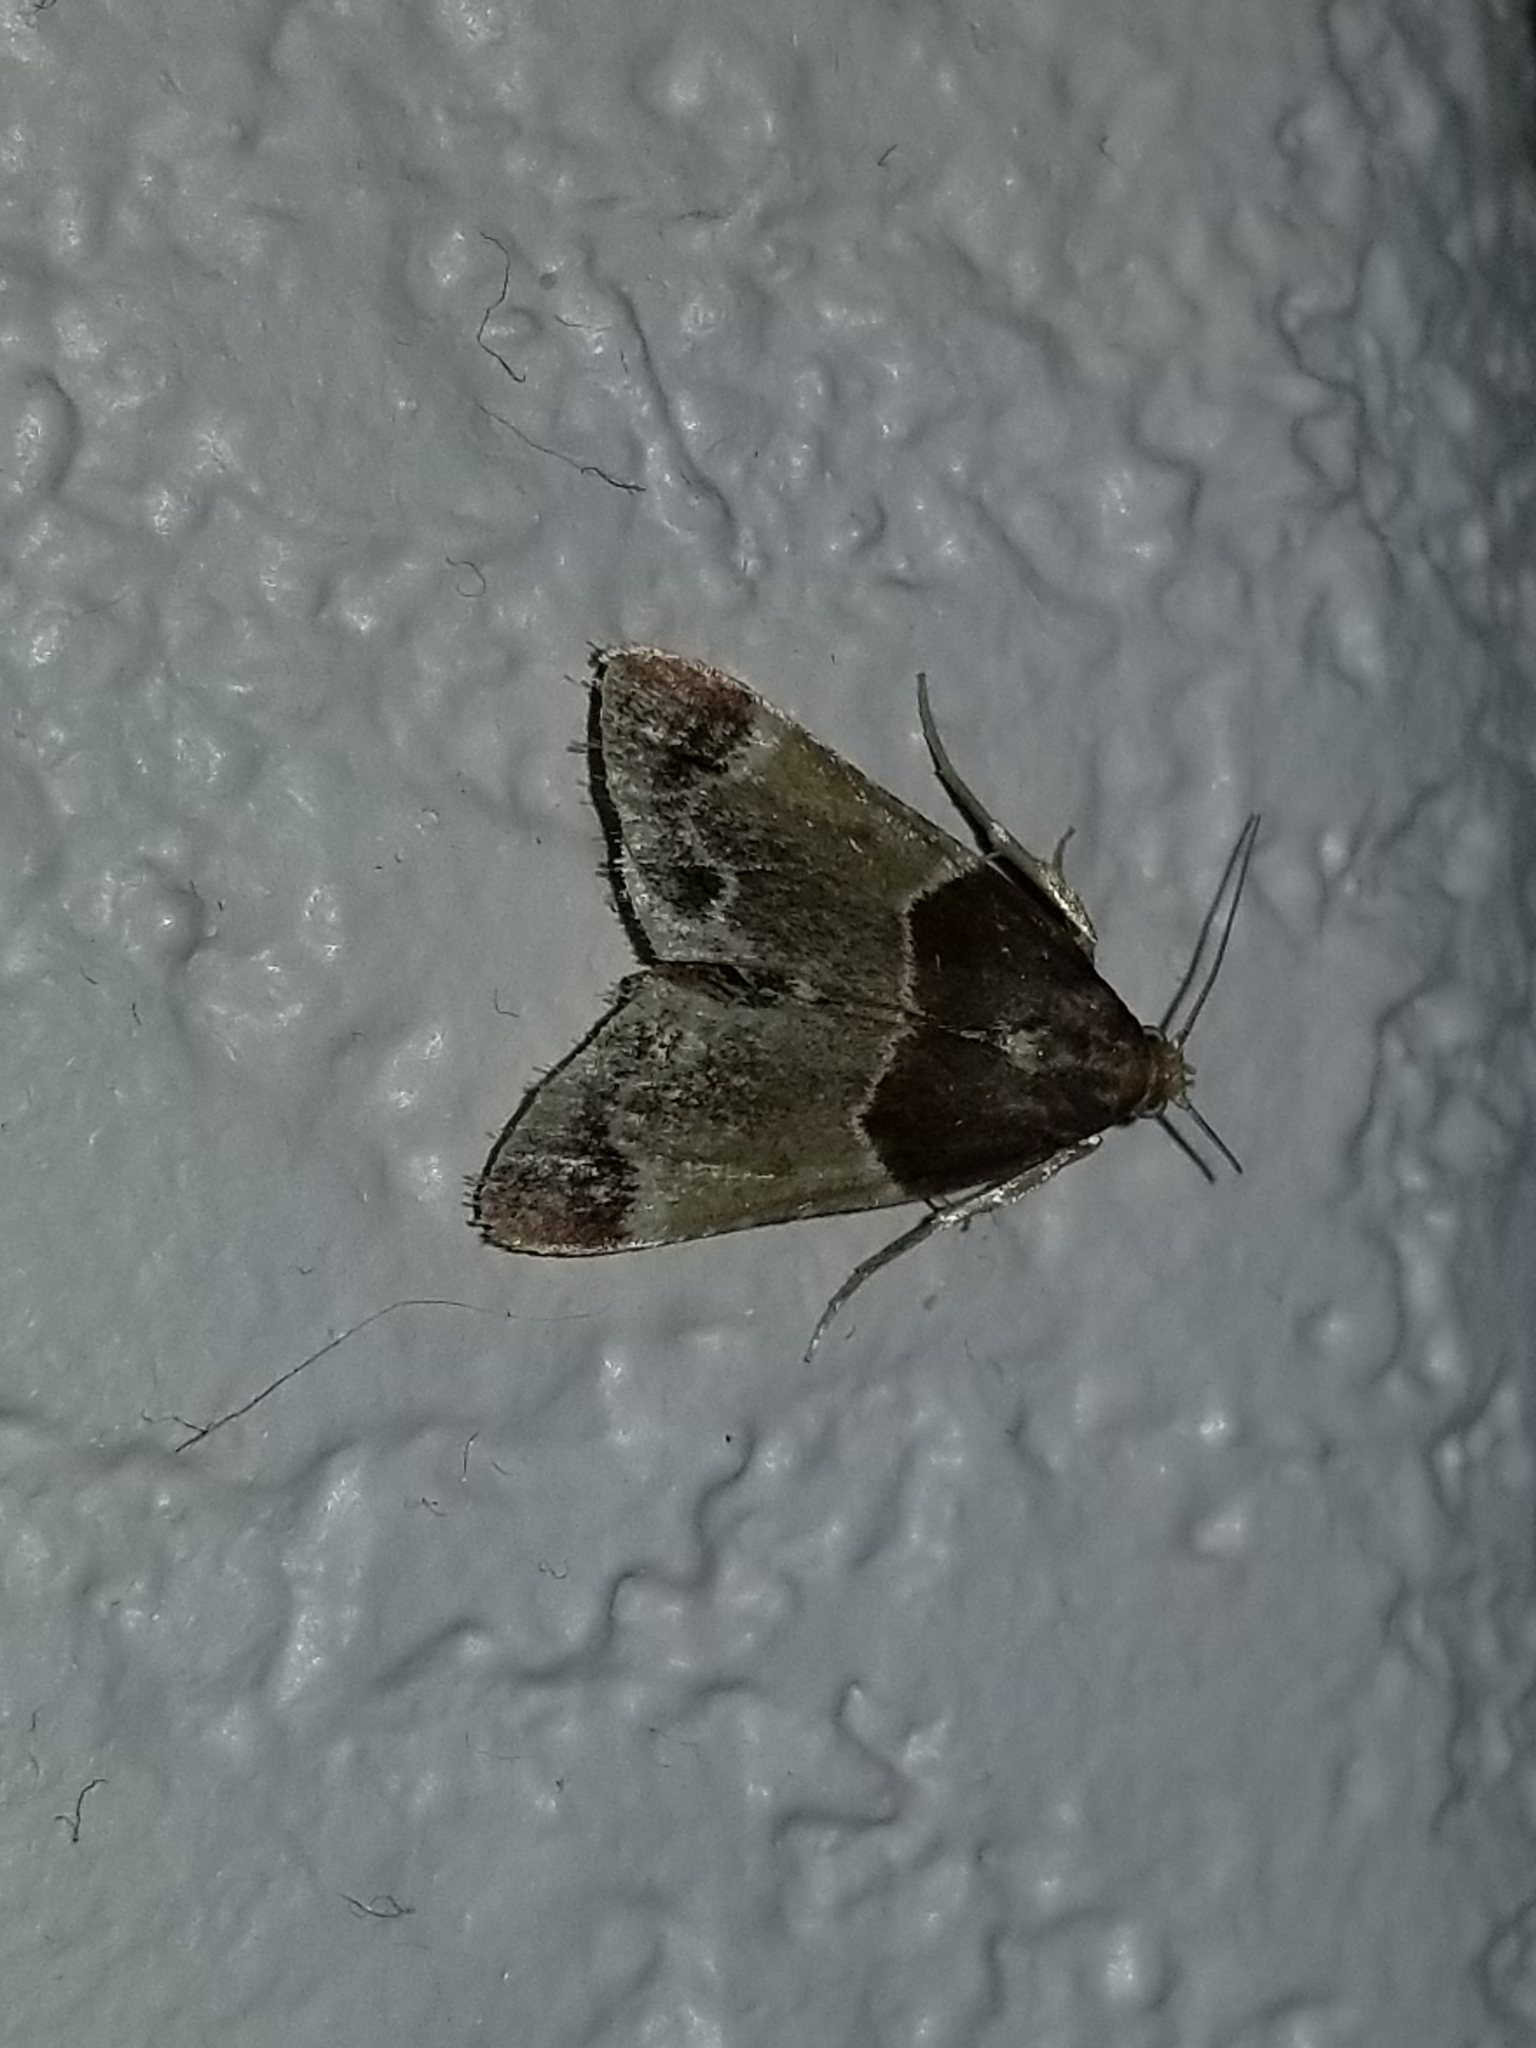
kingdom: Animalia
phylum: Arthropoda
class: Insecta
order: Lepidoptera
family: Pyralidae
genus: Pyralis
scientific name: Pyralis farinalis
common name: Meal moth
